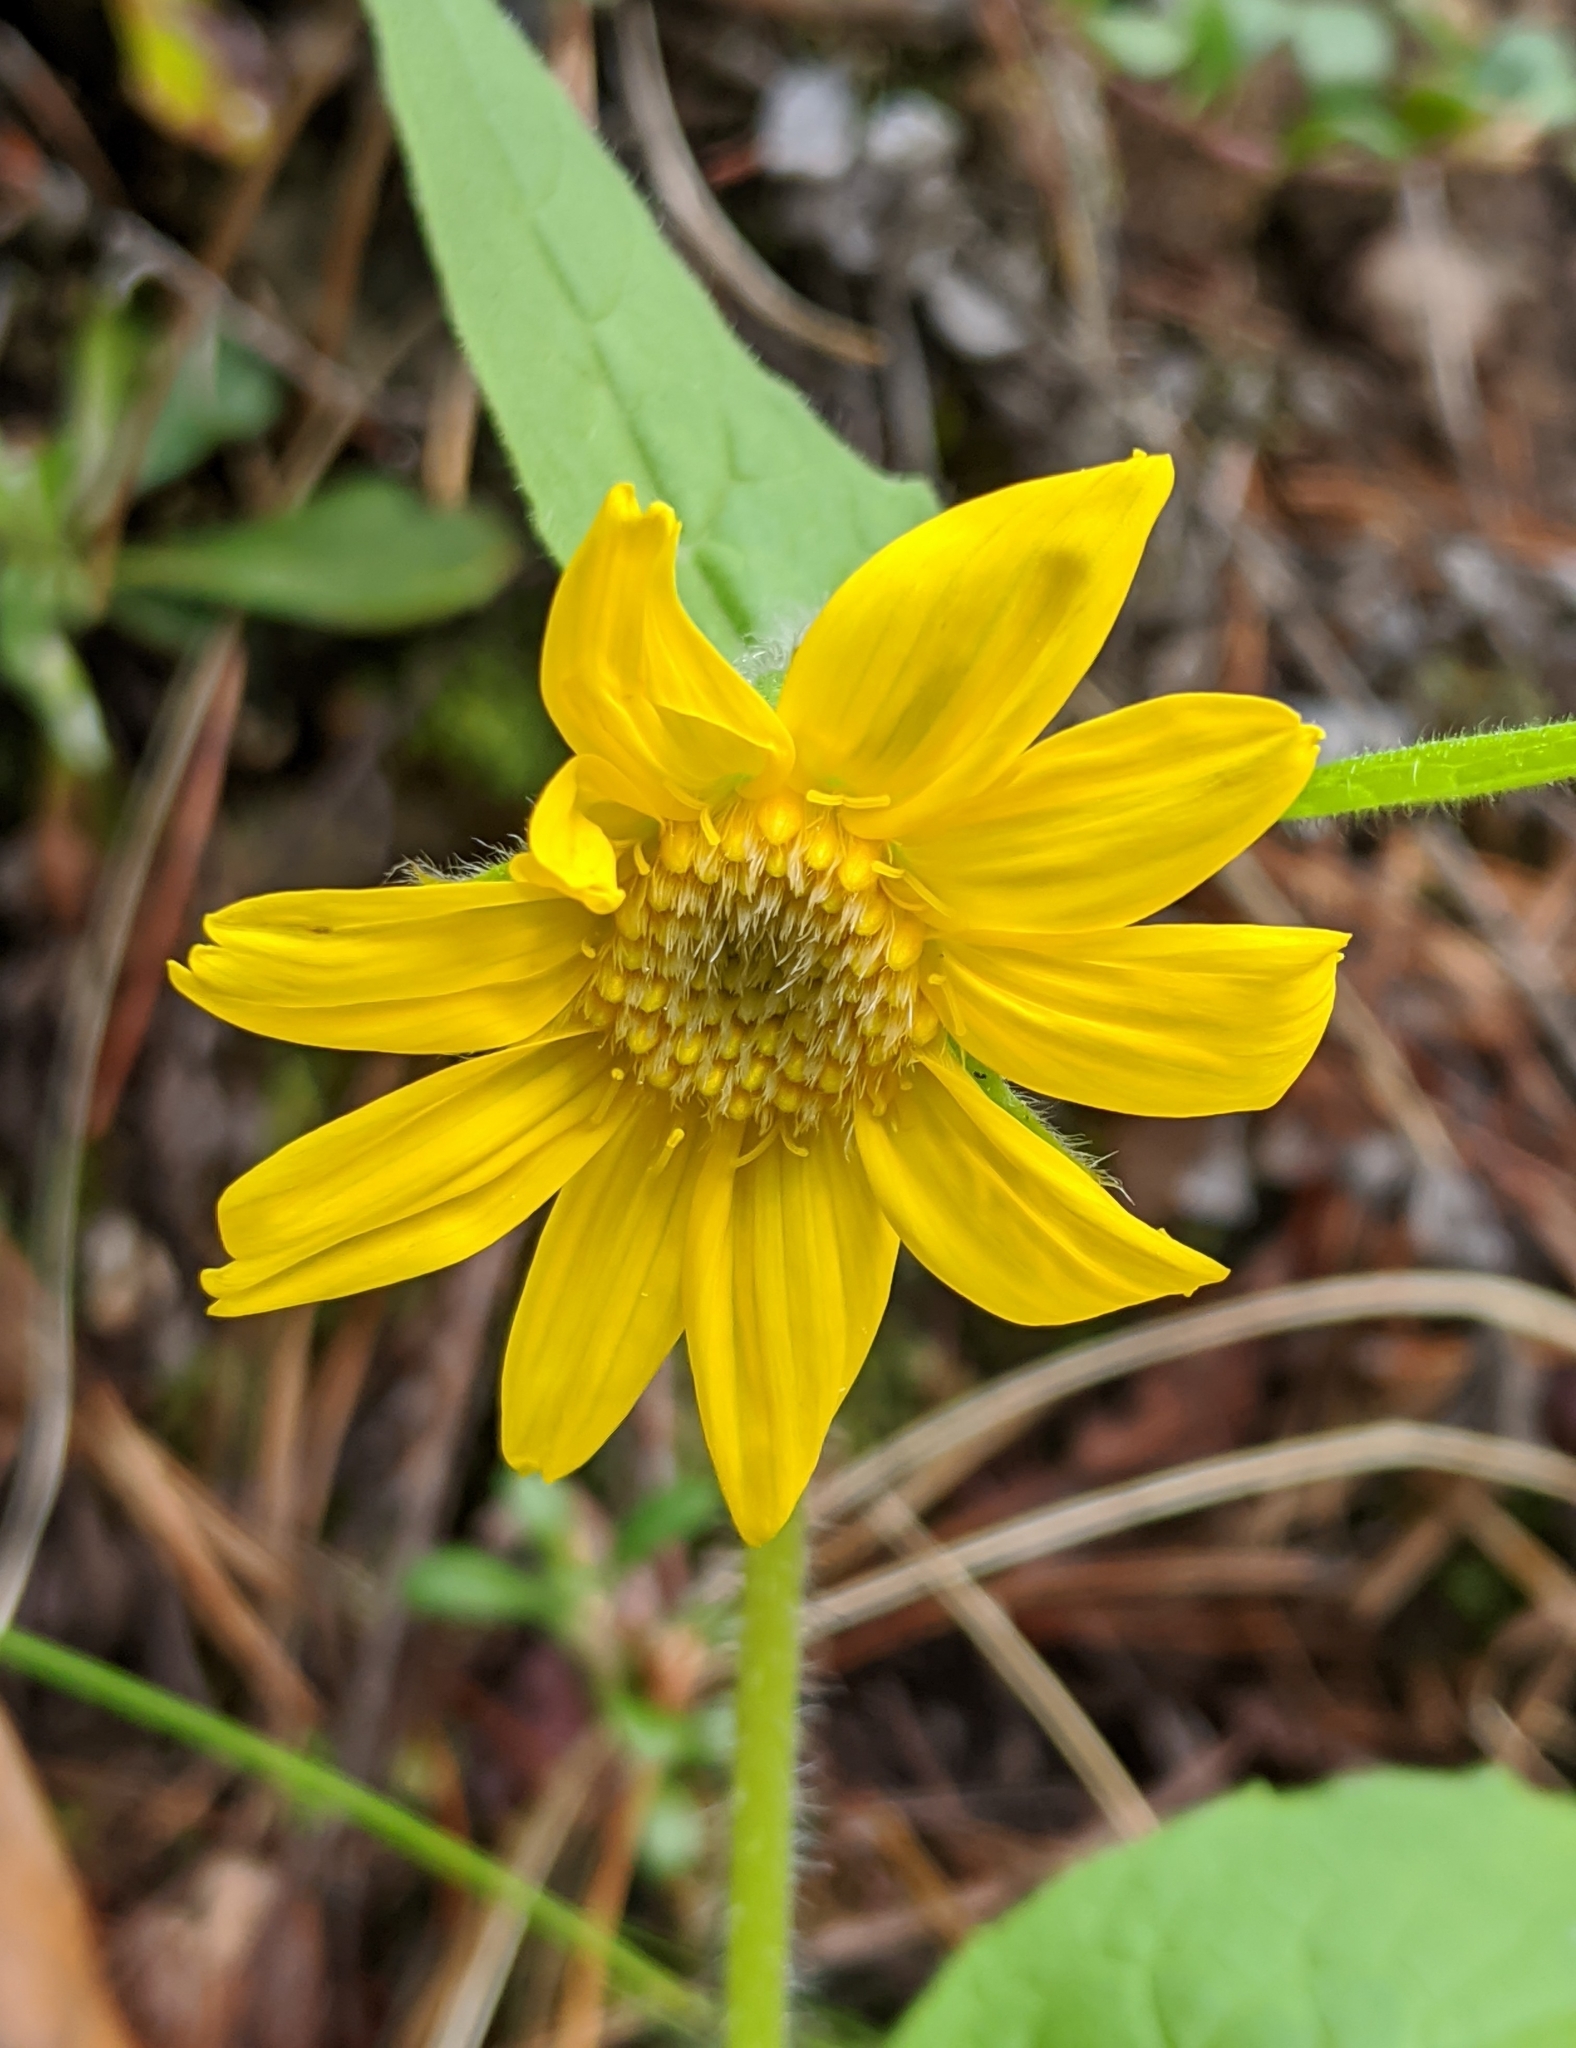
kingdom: Plantae
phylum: Tracheophyta
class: Magnoliopsida
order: Asterales
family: Asteraceae
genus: Arnica
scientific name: Arnica cordifolia
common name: Heart-leaf arnica
